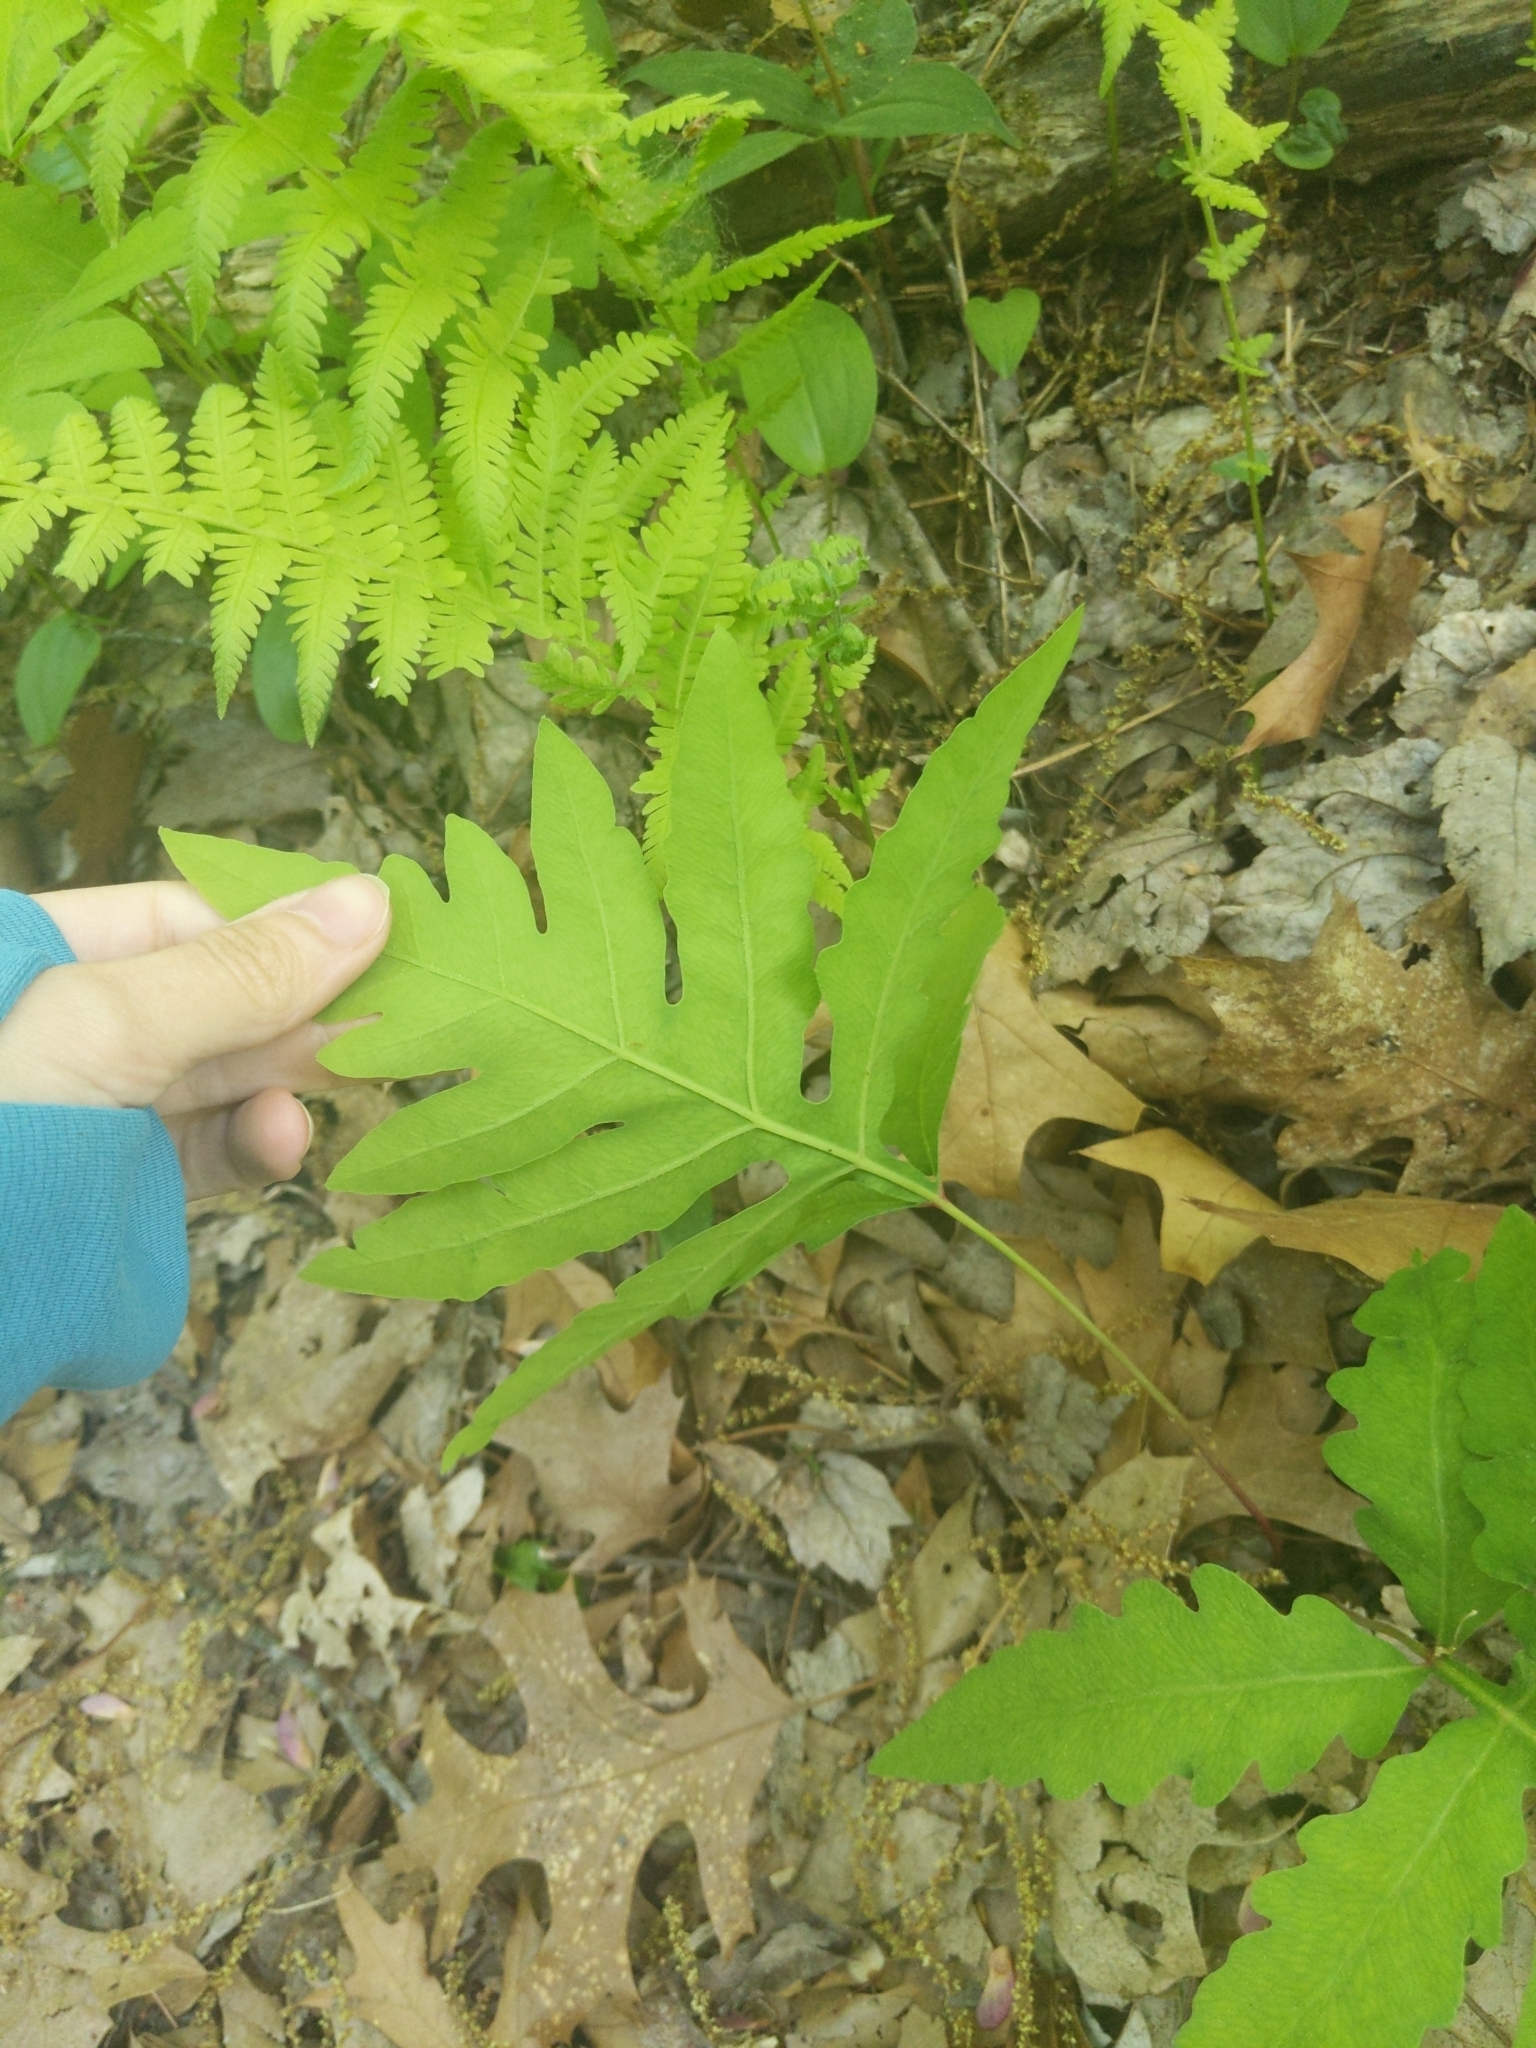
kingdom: Plantae
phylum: Tracheophyta
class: Polypodiopsida
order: Polypodiales
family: Onocleaceae
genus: Onoclea
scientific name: Onoclea sensibilis
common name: Sensitive fern
